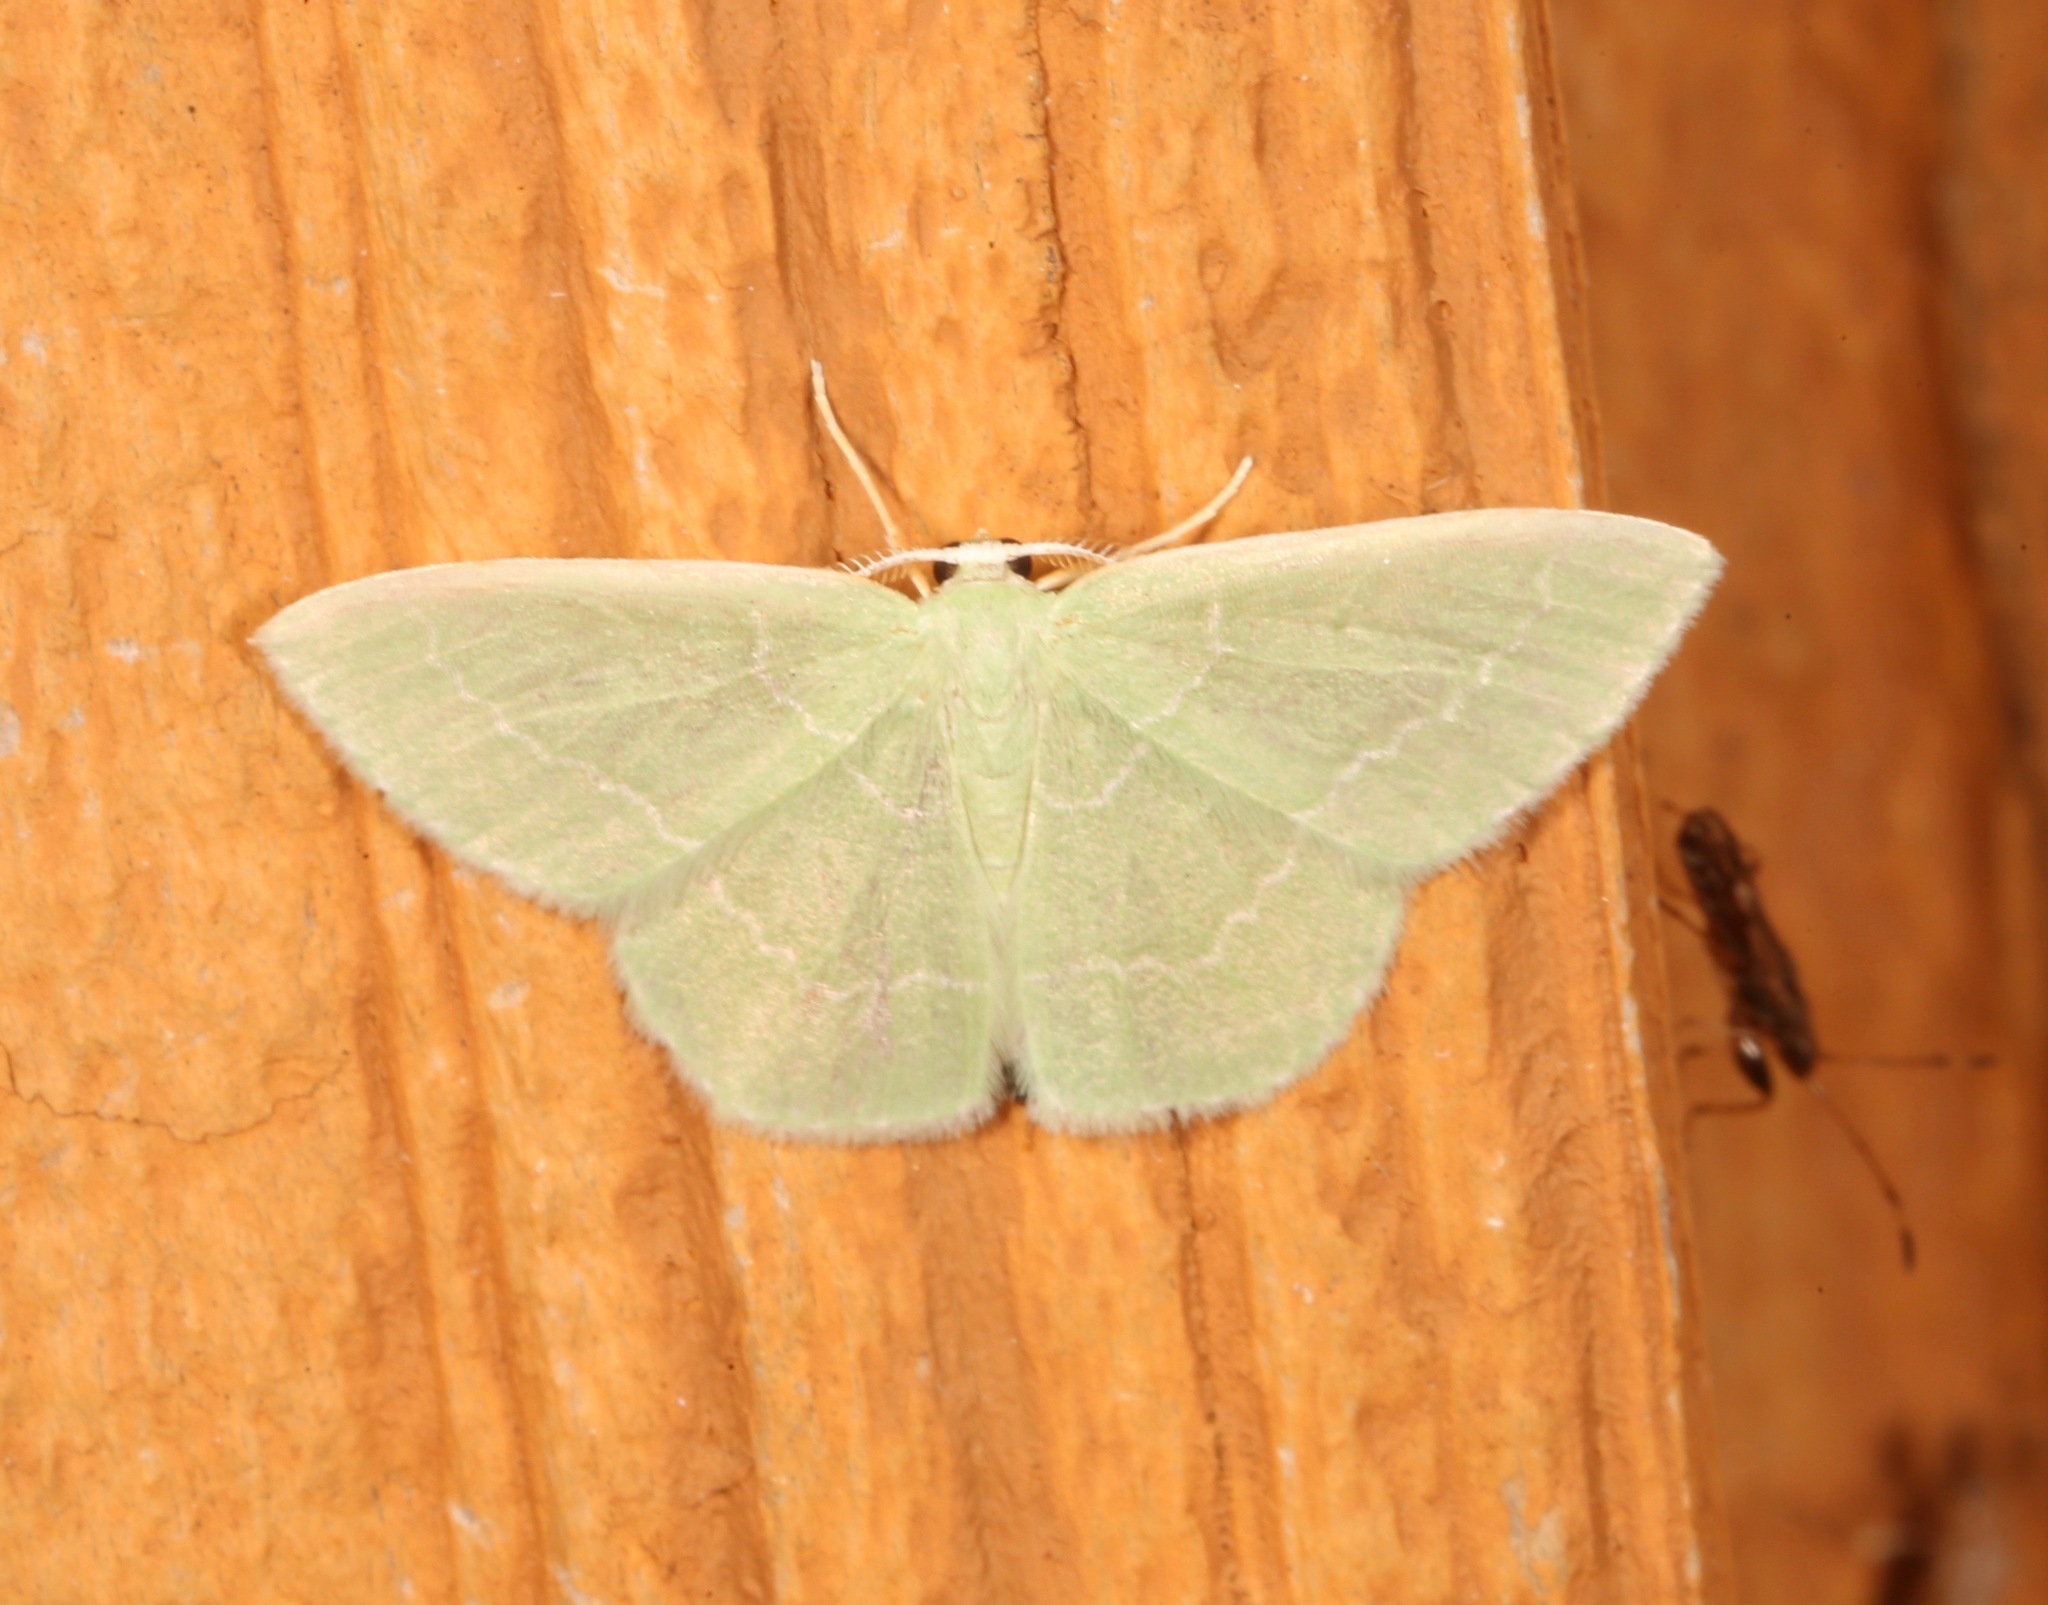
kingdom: Animalia
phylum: Arthropoda
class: Insecta
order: Lepidoptera
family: Geometridae
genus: Nemoria
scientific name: Nemoria elfa
